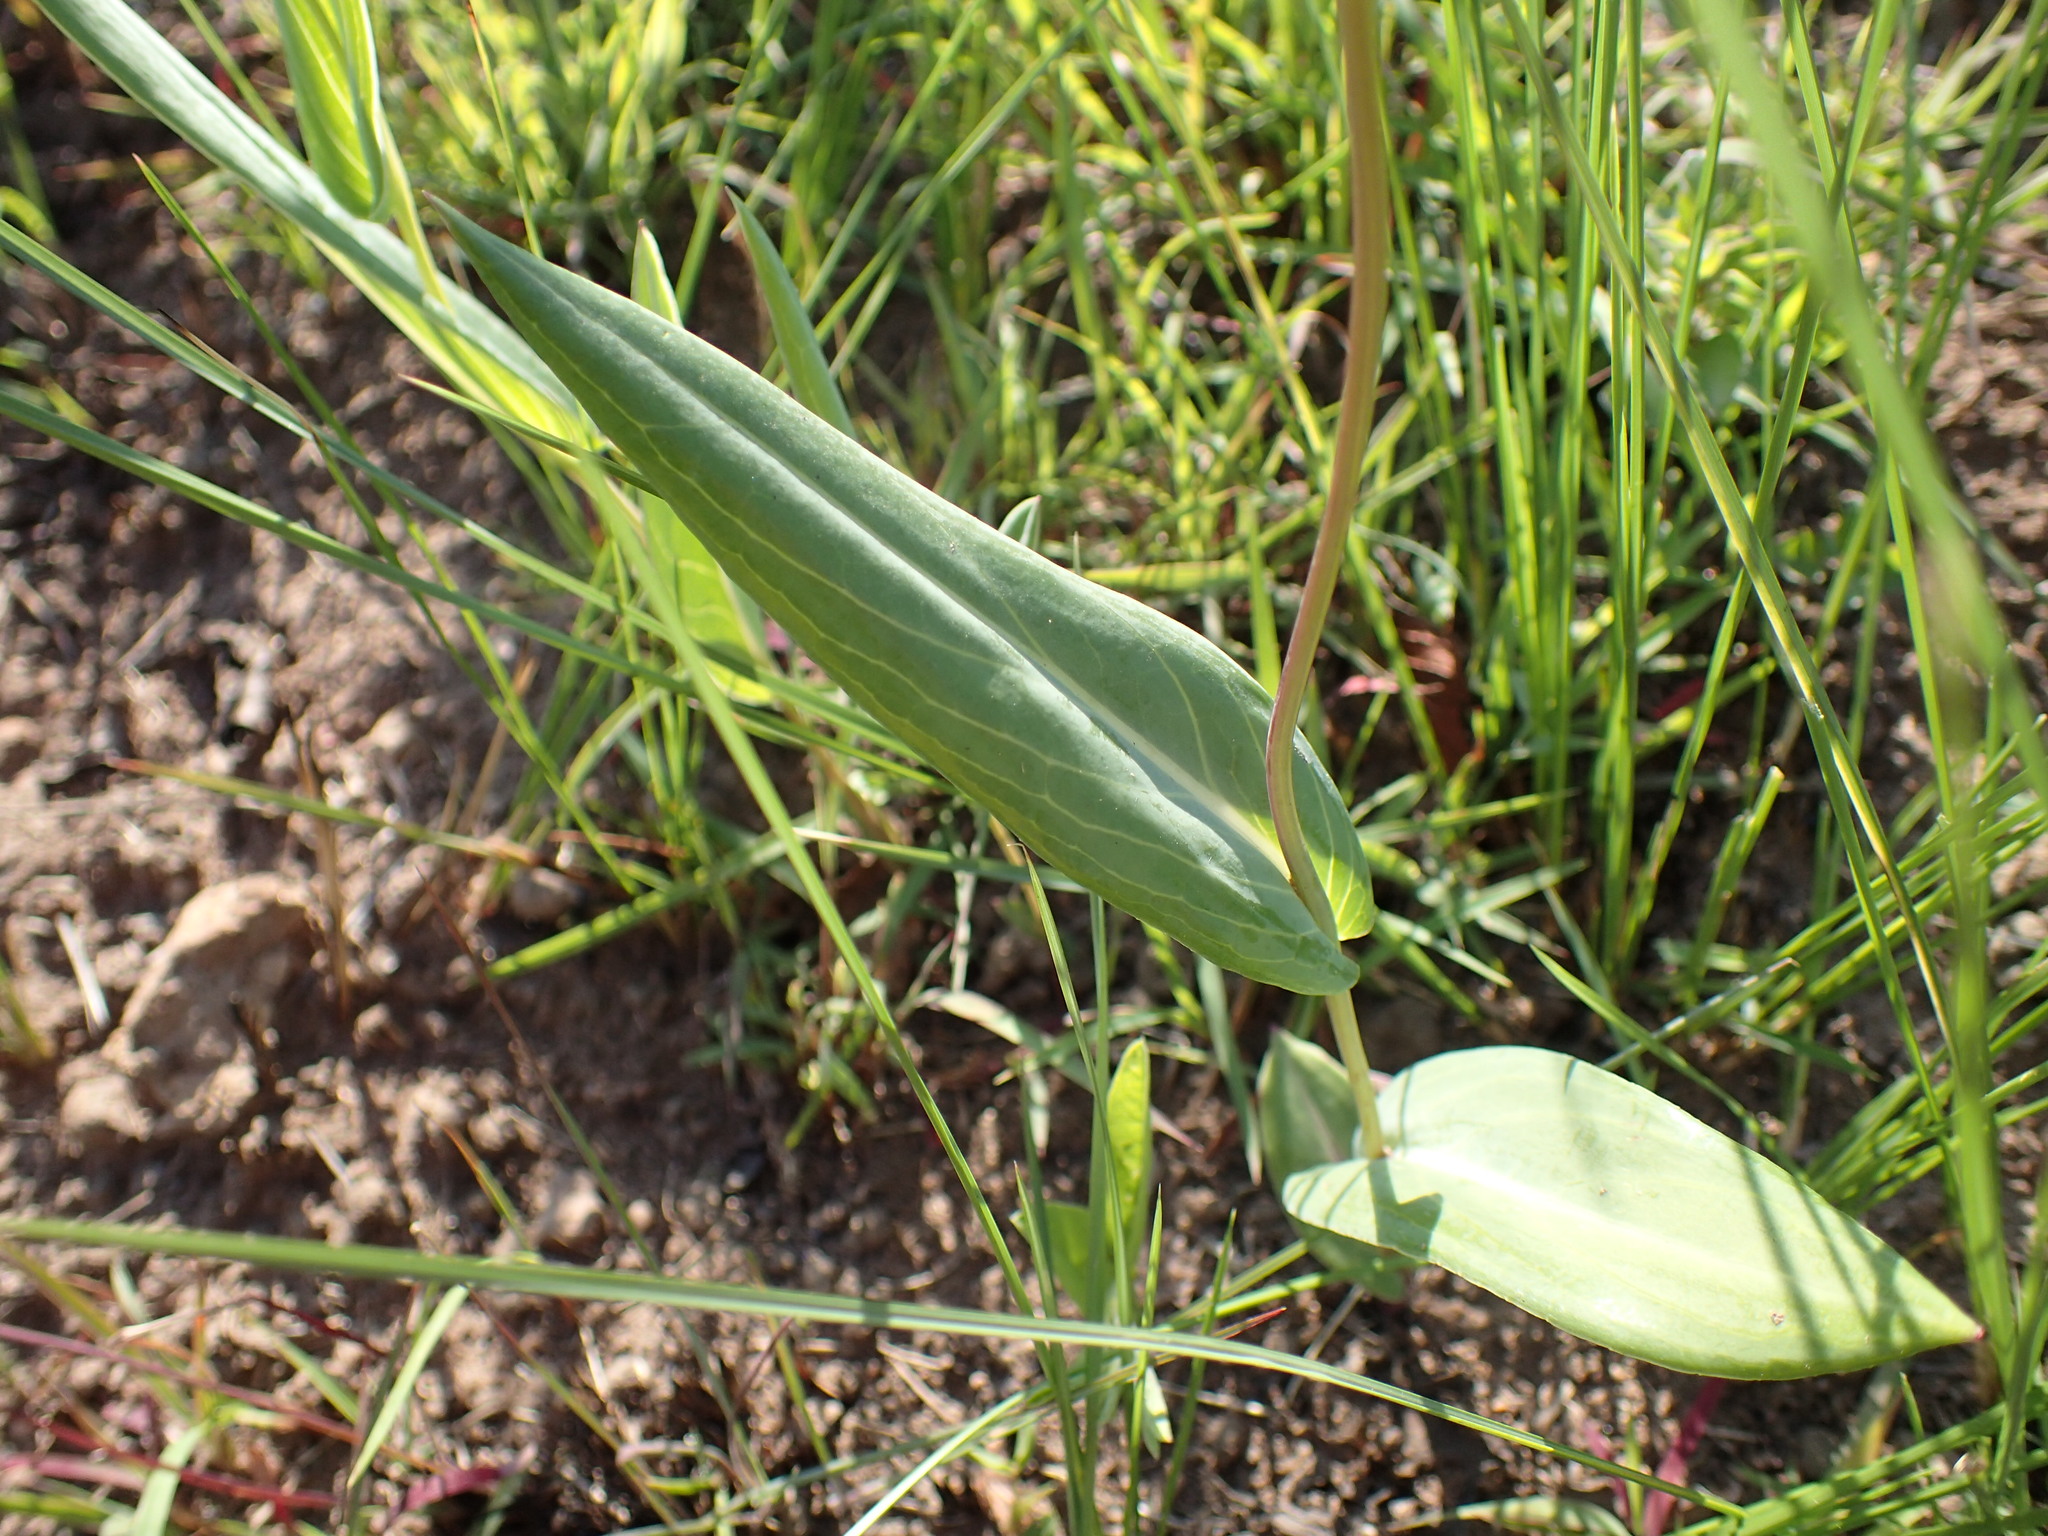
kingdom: Plantae
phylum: Tracheophyta
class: Magnoliopsida
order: Asterales
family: Asteraceae
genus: Senecio
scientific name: Senecio bupleuroides
